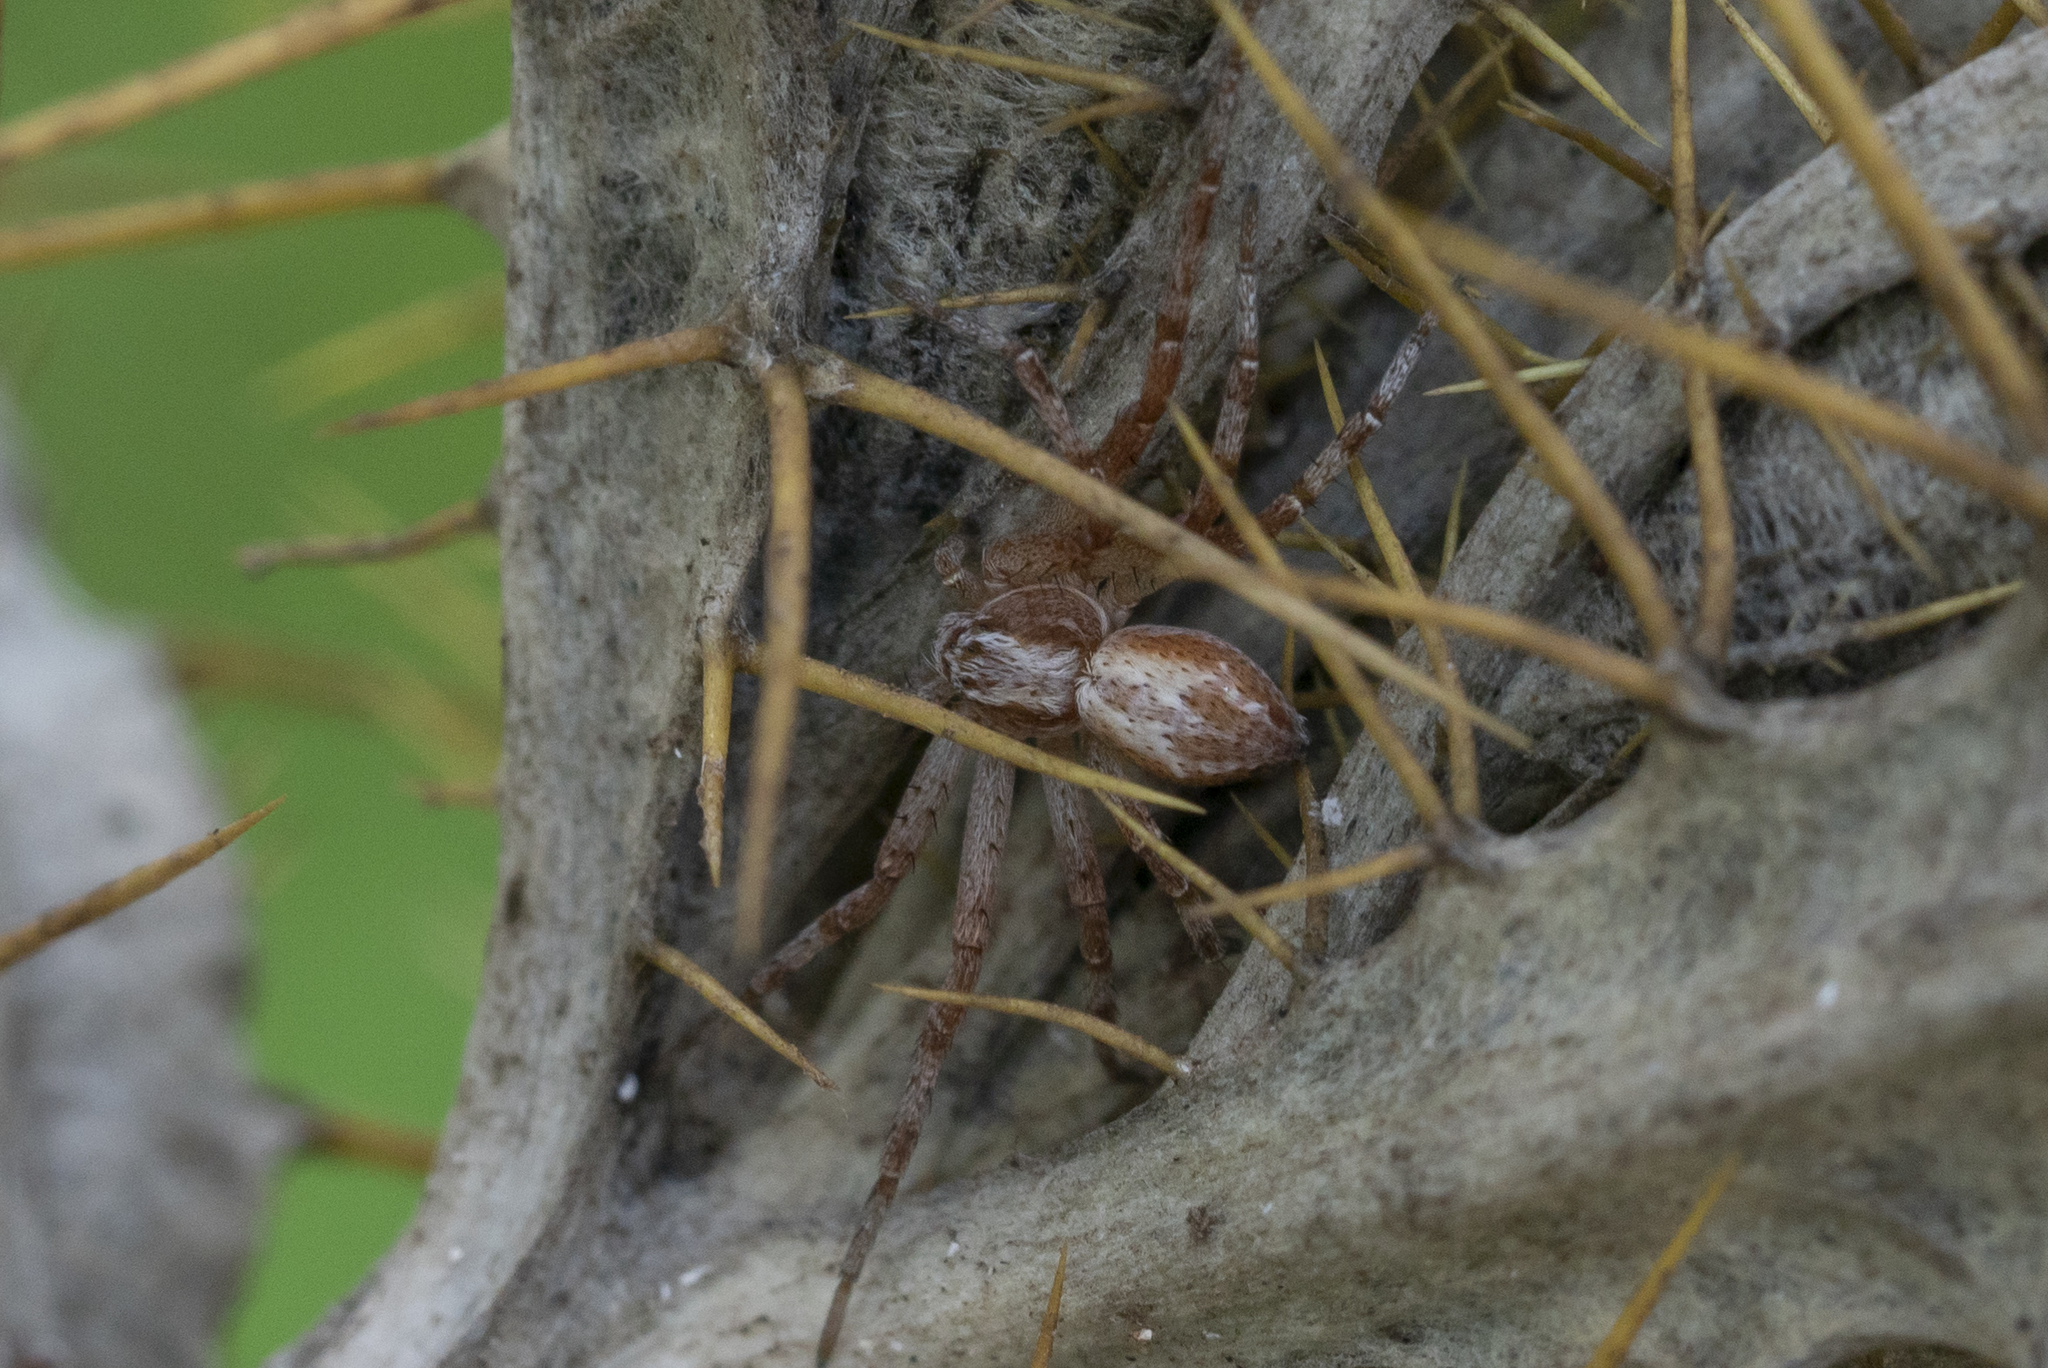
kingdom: Animalia
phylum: Arthropoda
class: Arachnida
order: Araneae
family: Philodromidae
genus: Philodromus
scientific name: Philodromus
